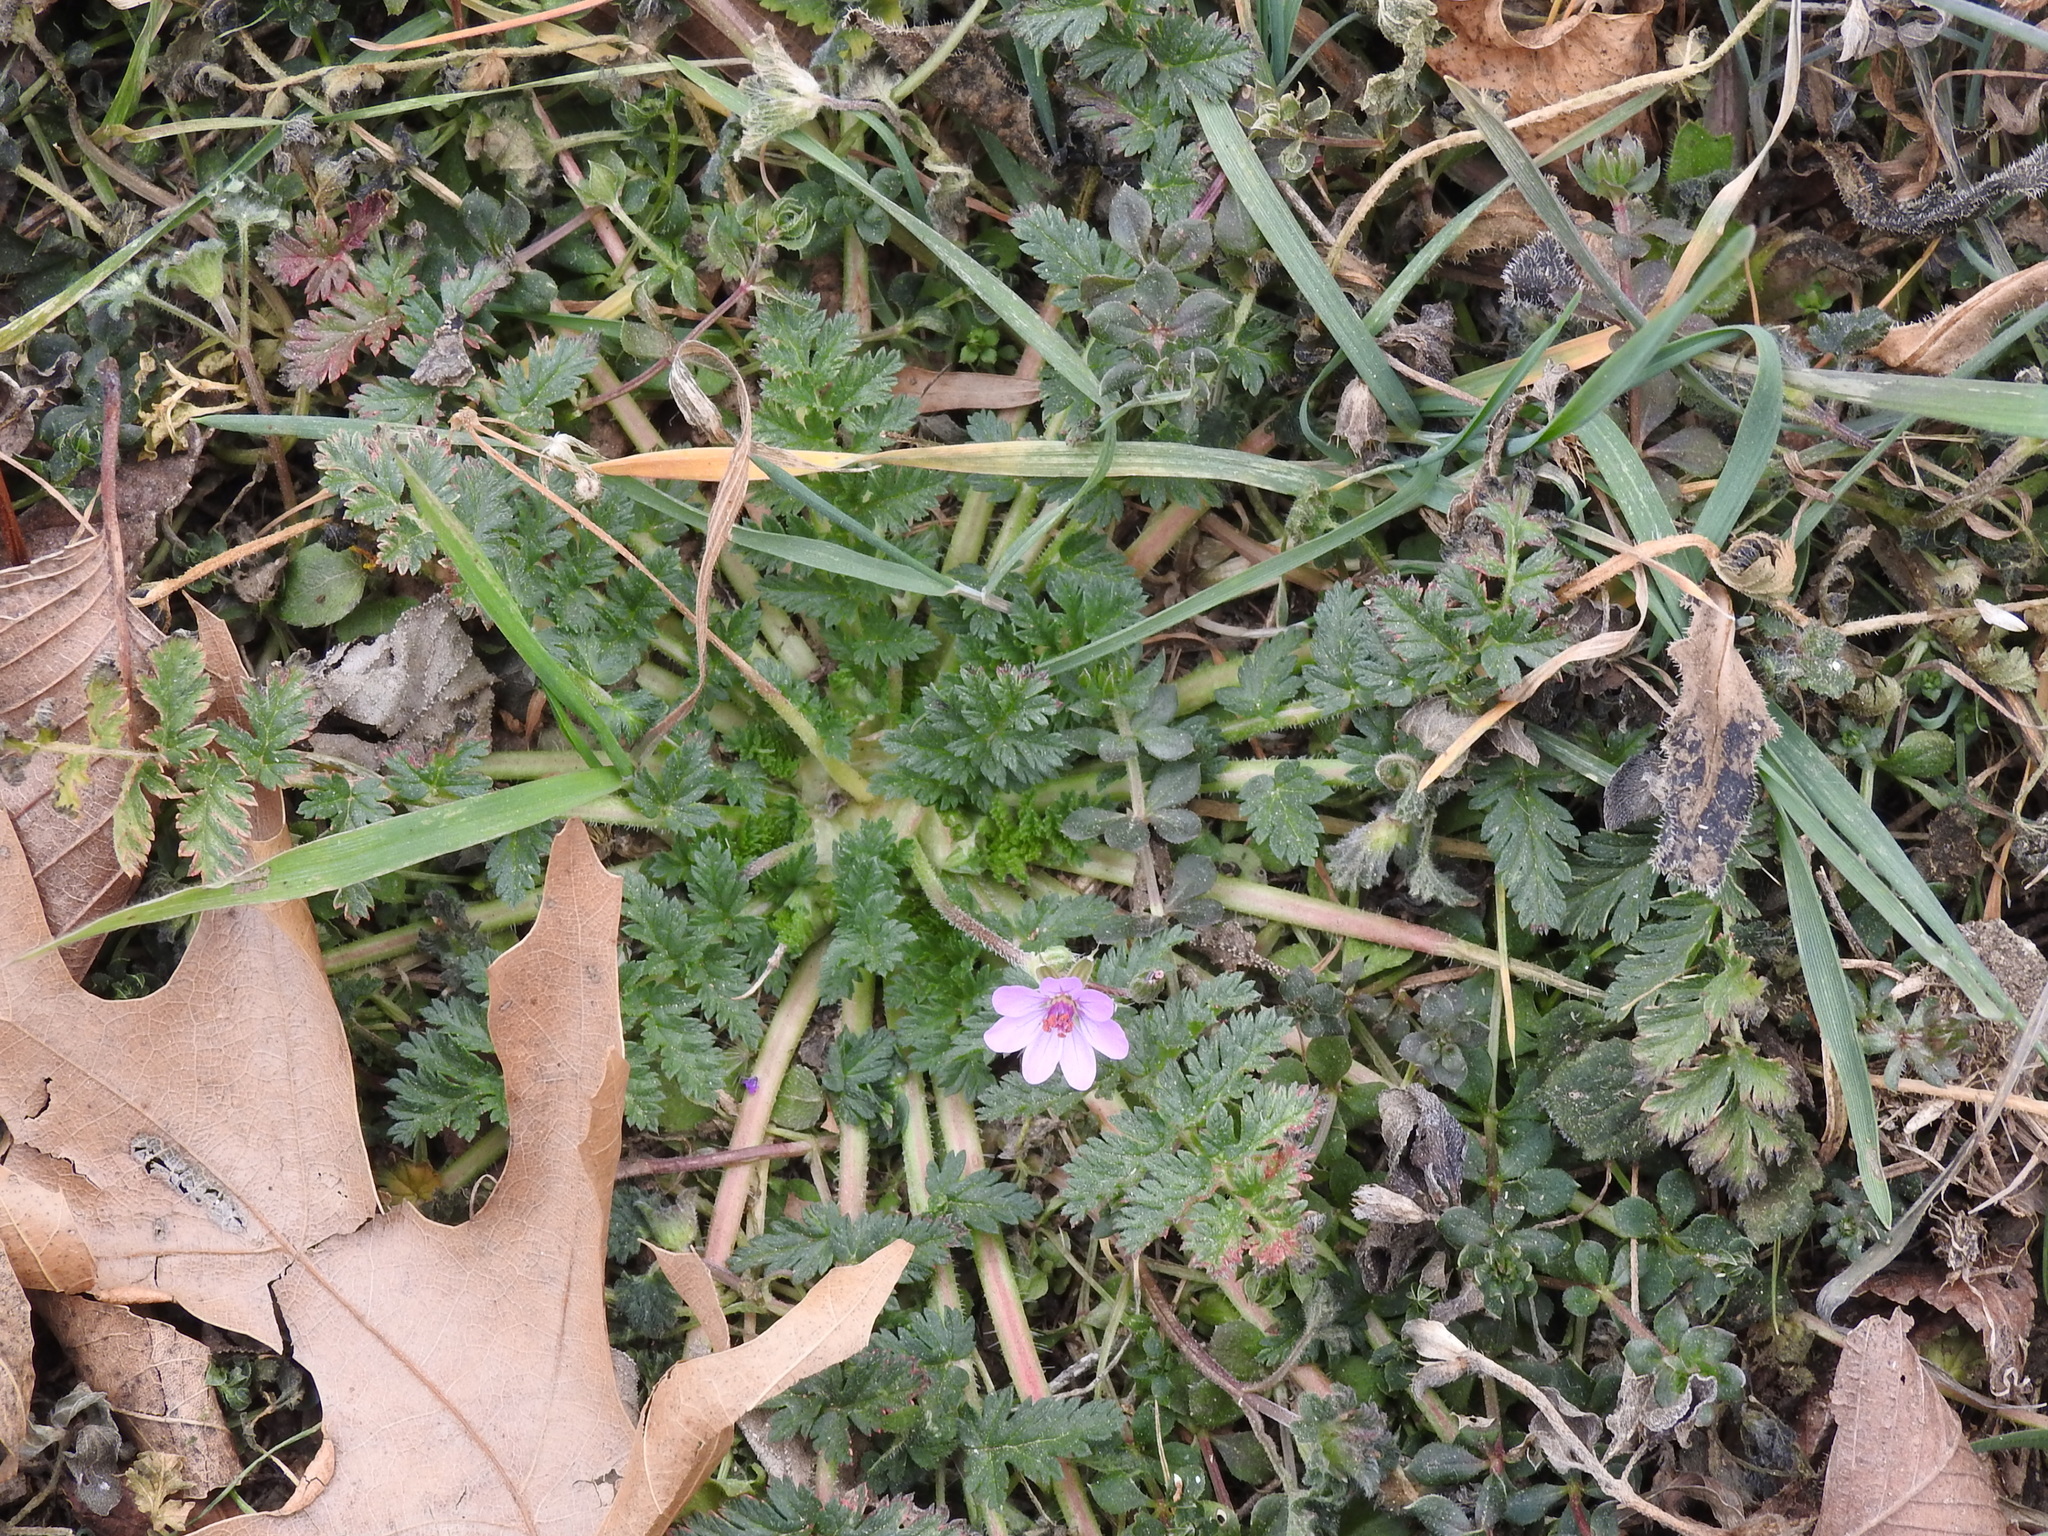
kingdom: Plantae
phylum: Tracheophyta
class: Magnoliopsida
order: Geraniales
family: Geraniaceae
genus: Erodium
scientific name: Erodium cicutarium
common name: Common stork's-bill
